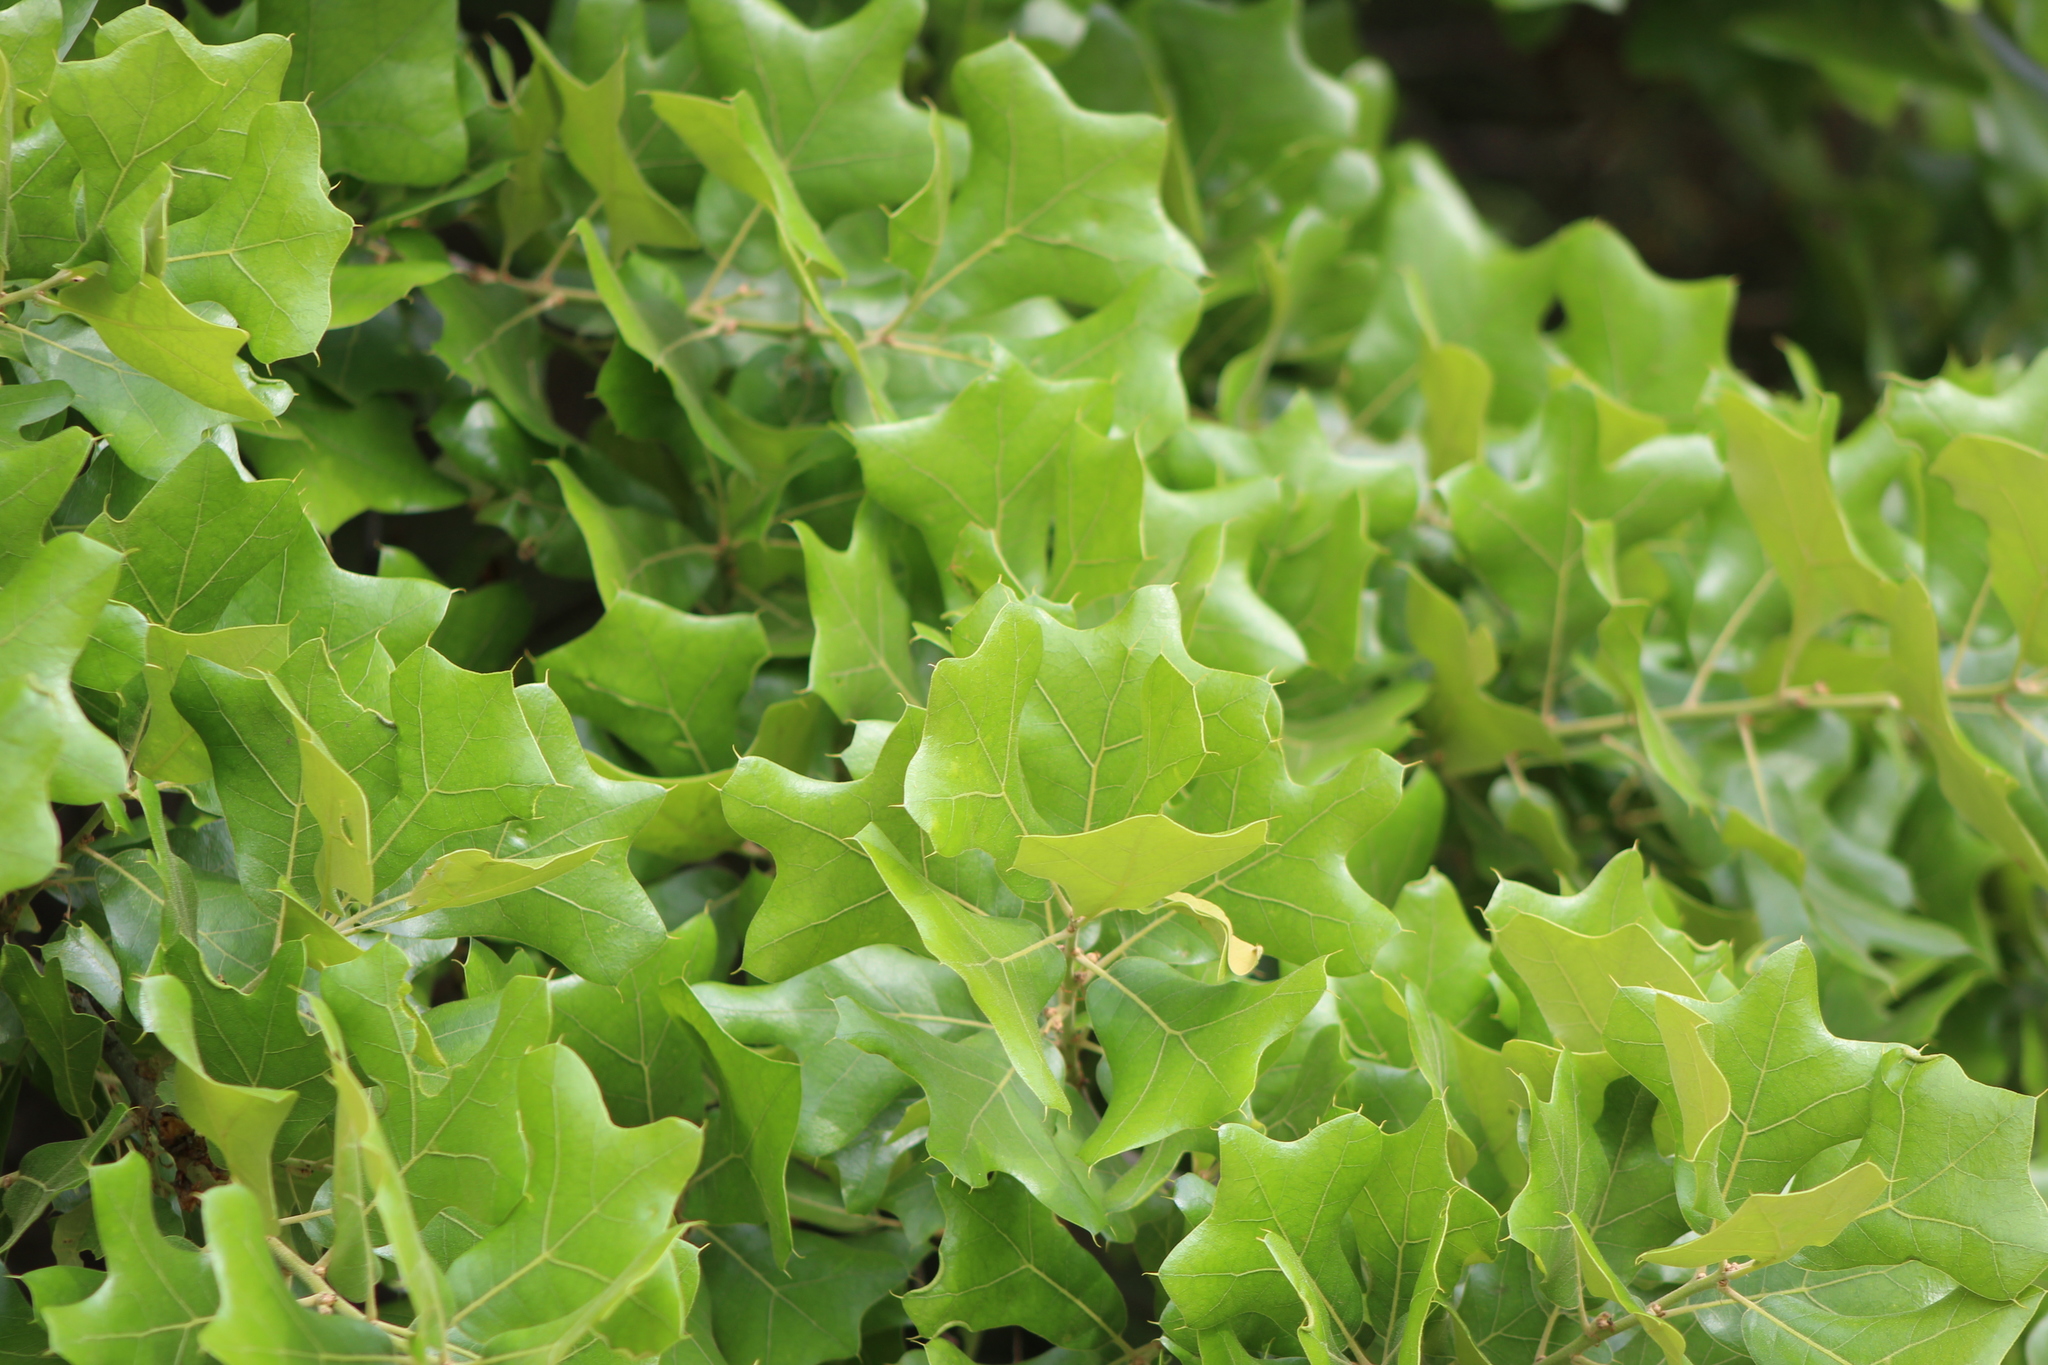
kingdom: Plantae
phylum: Tracheophyta
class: Magnoliopsida
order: Fagales
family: Fagaceae
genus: Quercus
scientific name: Quercus marilandica
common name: Blackjack oak
